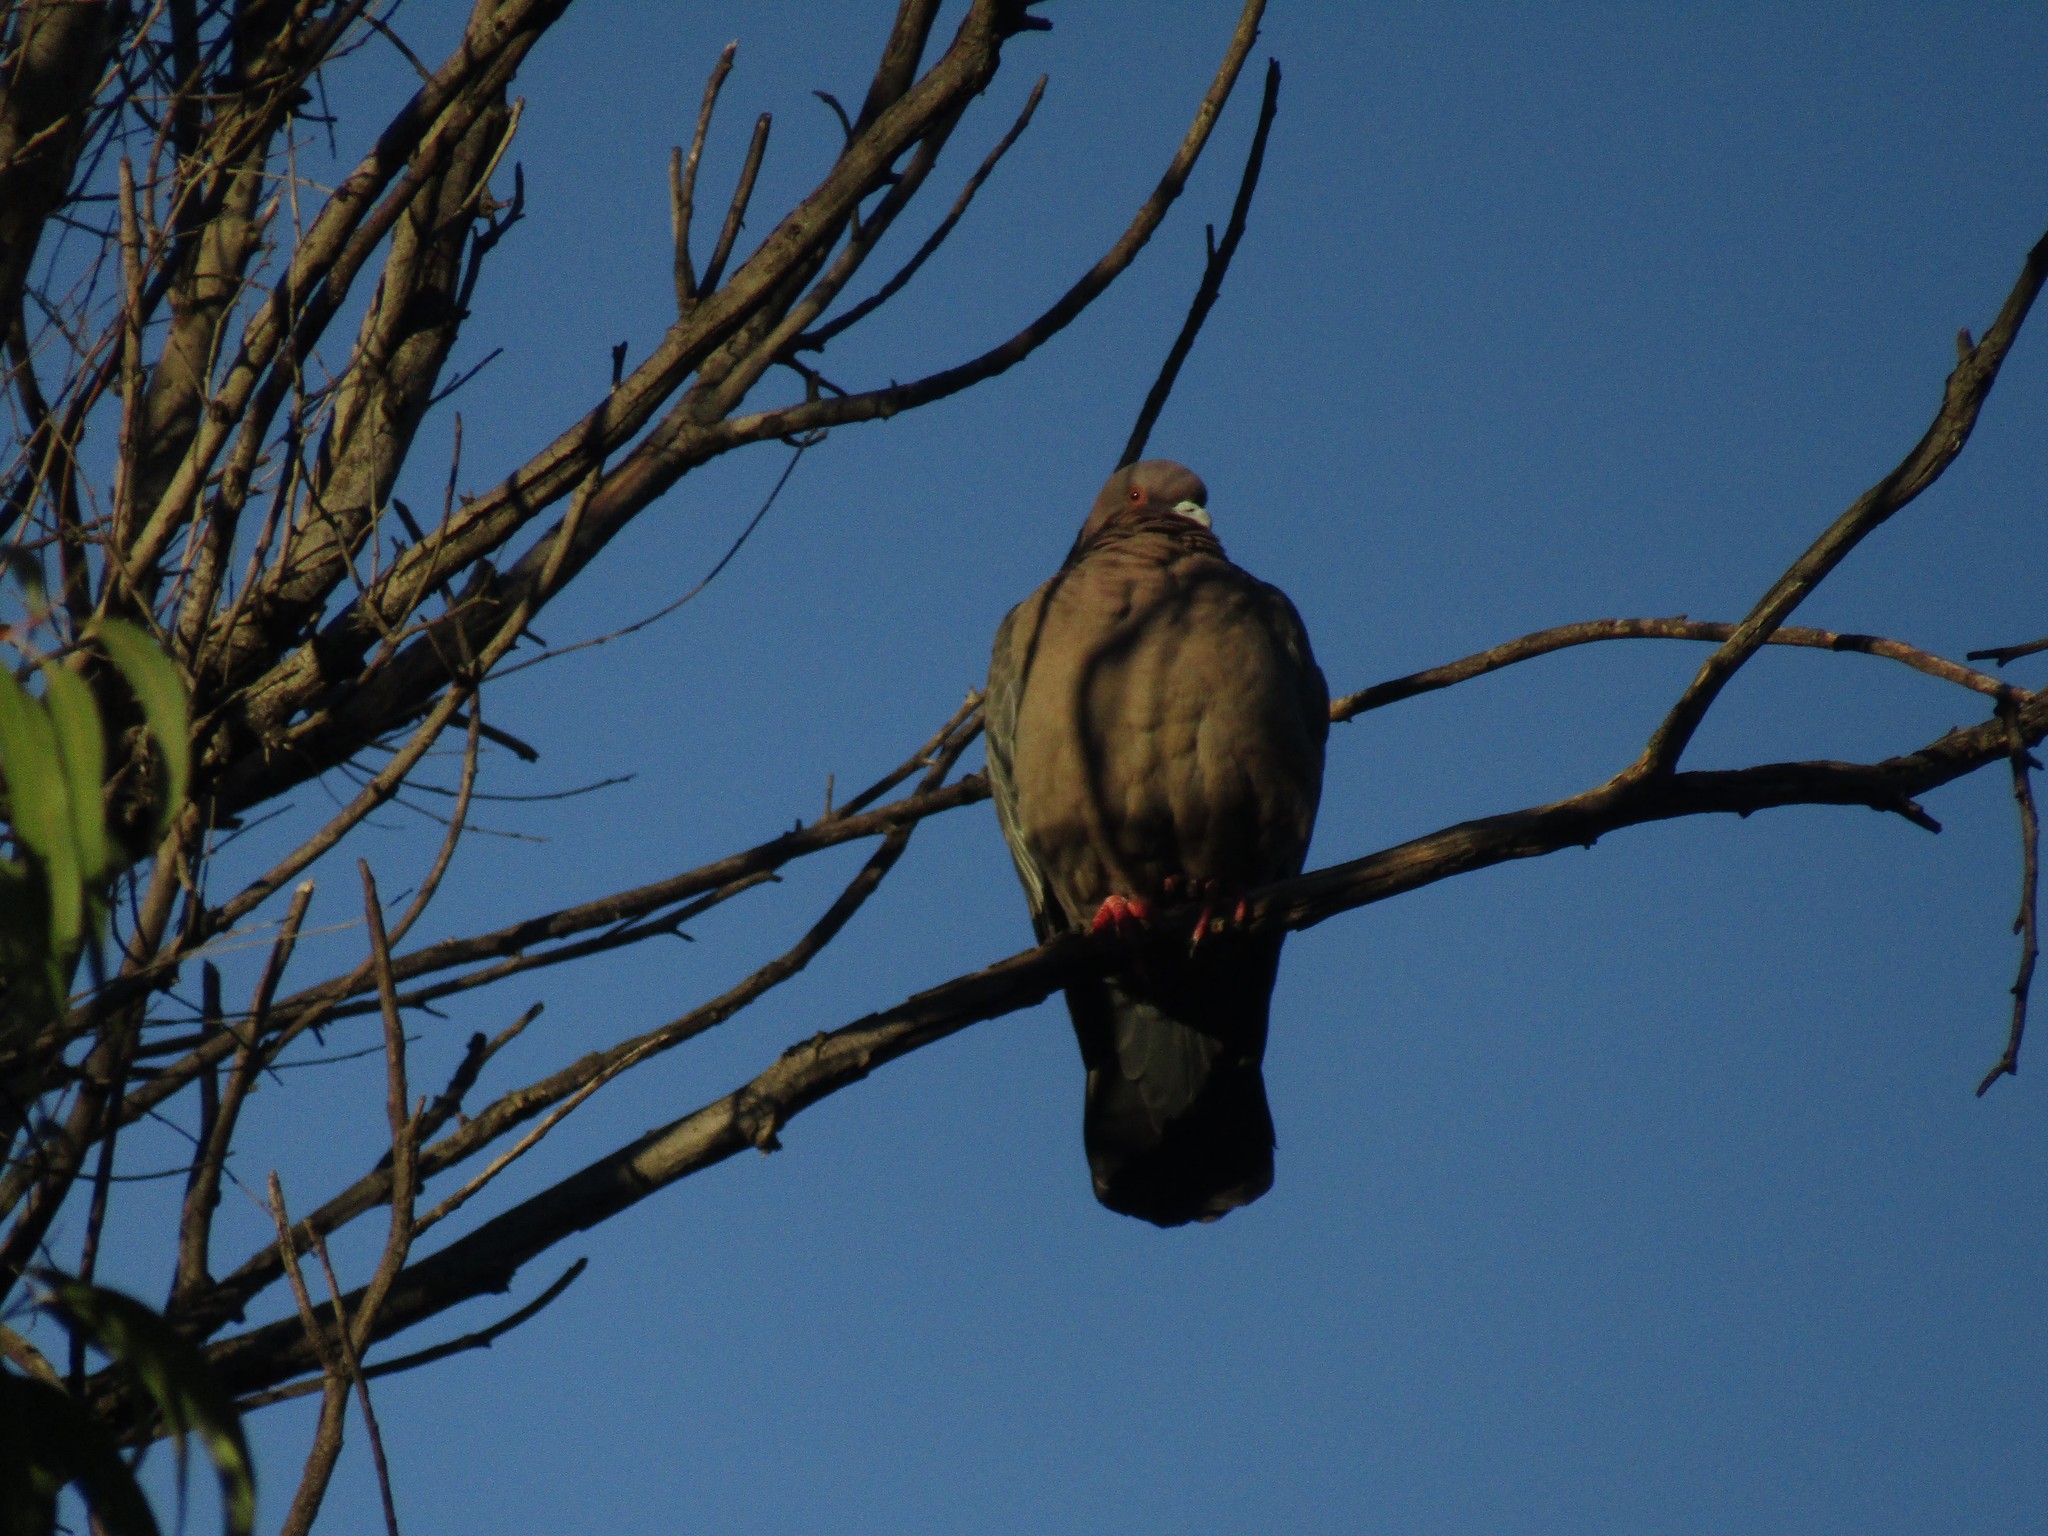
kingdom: Animalia
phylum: Chordata
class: Aves
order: Columbiformes
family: Columbidae
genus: Patagioenas
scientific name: Patagioenas picazuro
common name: Picazuro pigeon
